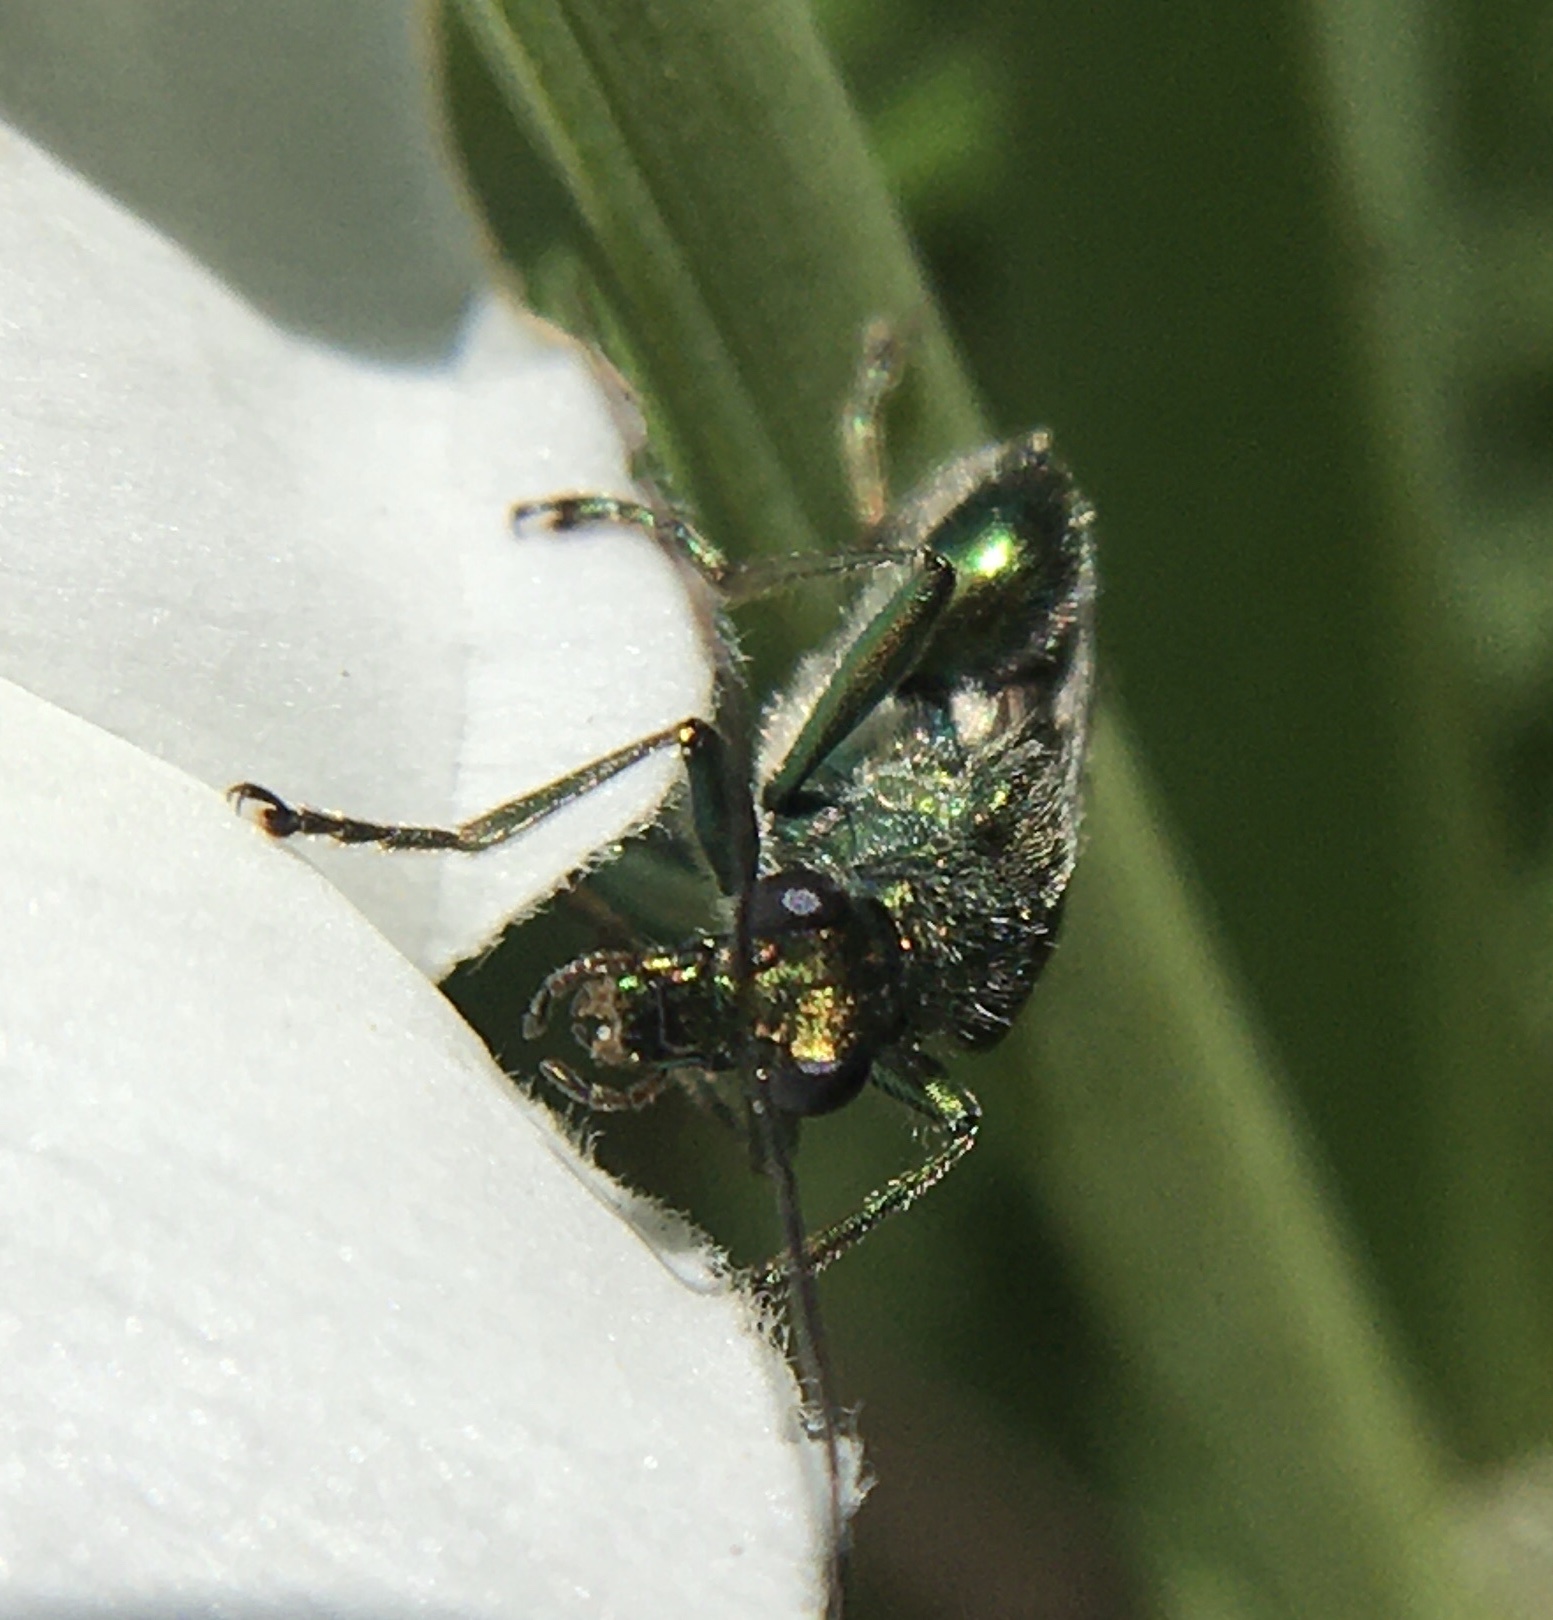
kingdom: Animalia
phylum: Arthropoda
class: Insecta
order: Coleoptera
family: Oedemeridae
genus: Oedemera
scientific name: Oedemera nobilis
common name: Swollen-thighed beetle
